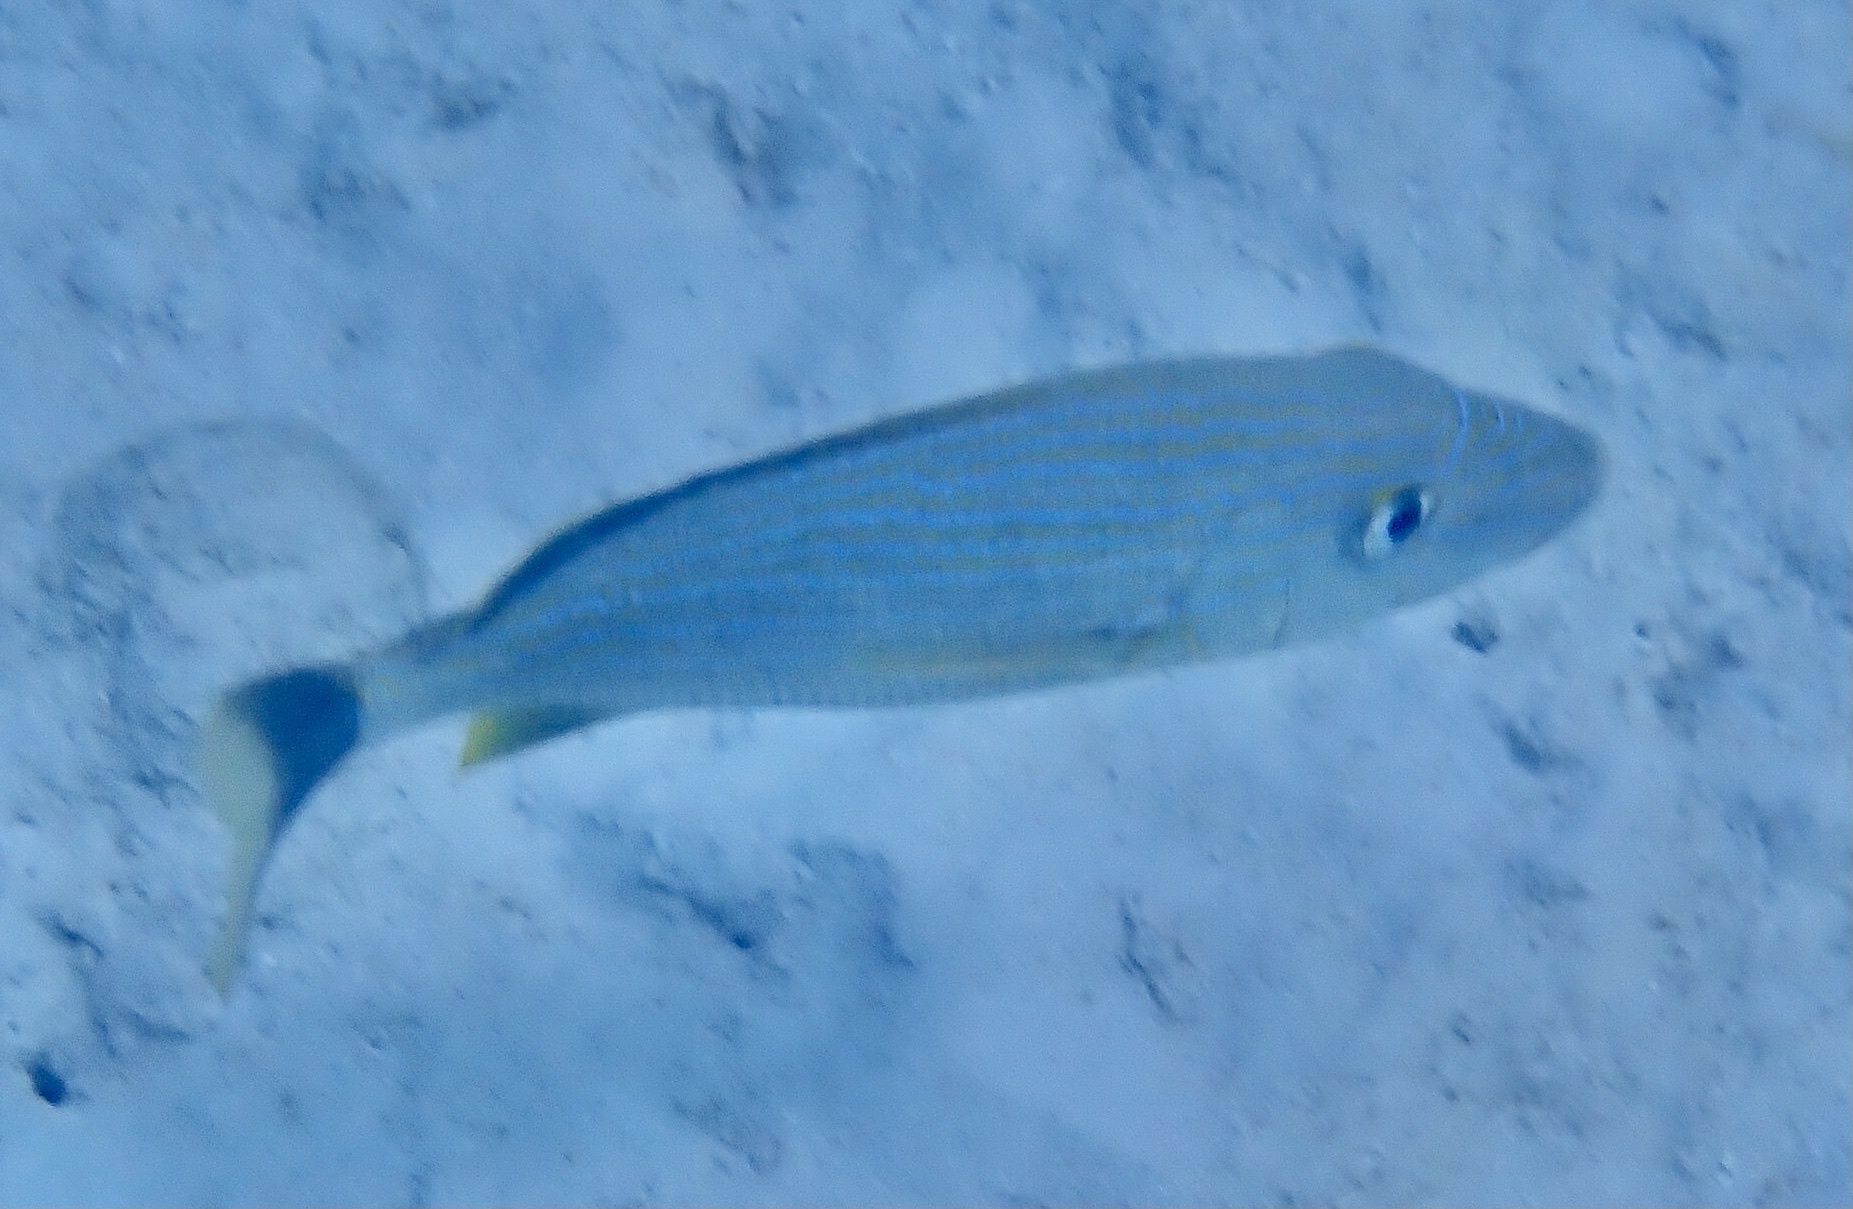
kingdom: Animalia
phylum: Chordata
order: Perciformes
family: Haemulidae
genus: Haemulon
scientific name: Haemulon sciurus
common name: Bluestriped grunt
